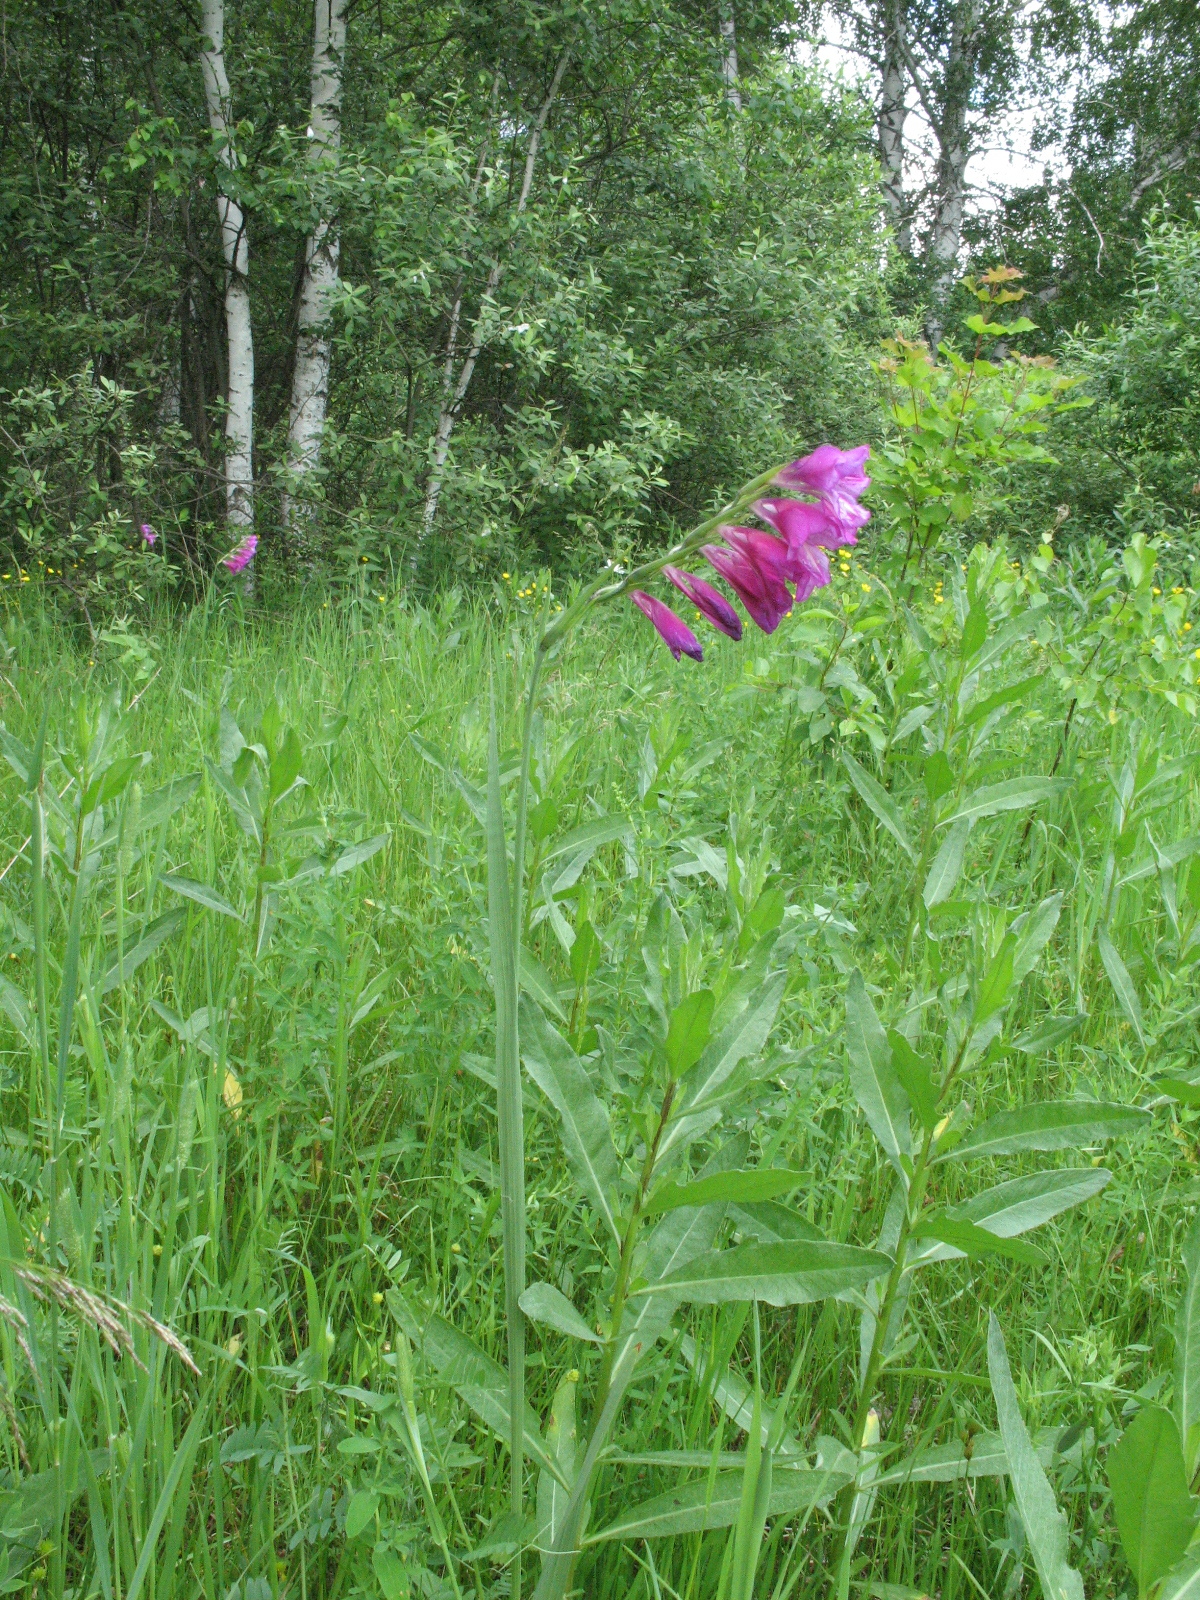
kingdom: Plantae
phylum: Tracheophyta
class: Liliopsida
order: Asparagales
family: Iridaceae
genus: Gladiolus
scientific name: Gladiolus tenuis
